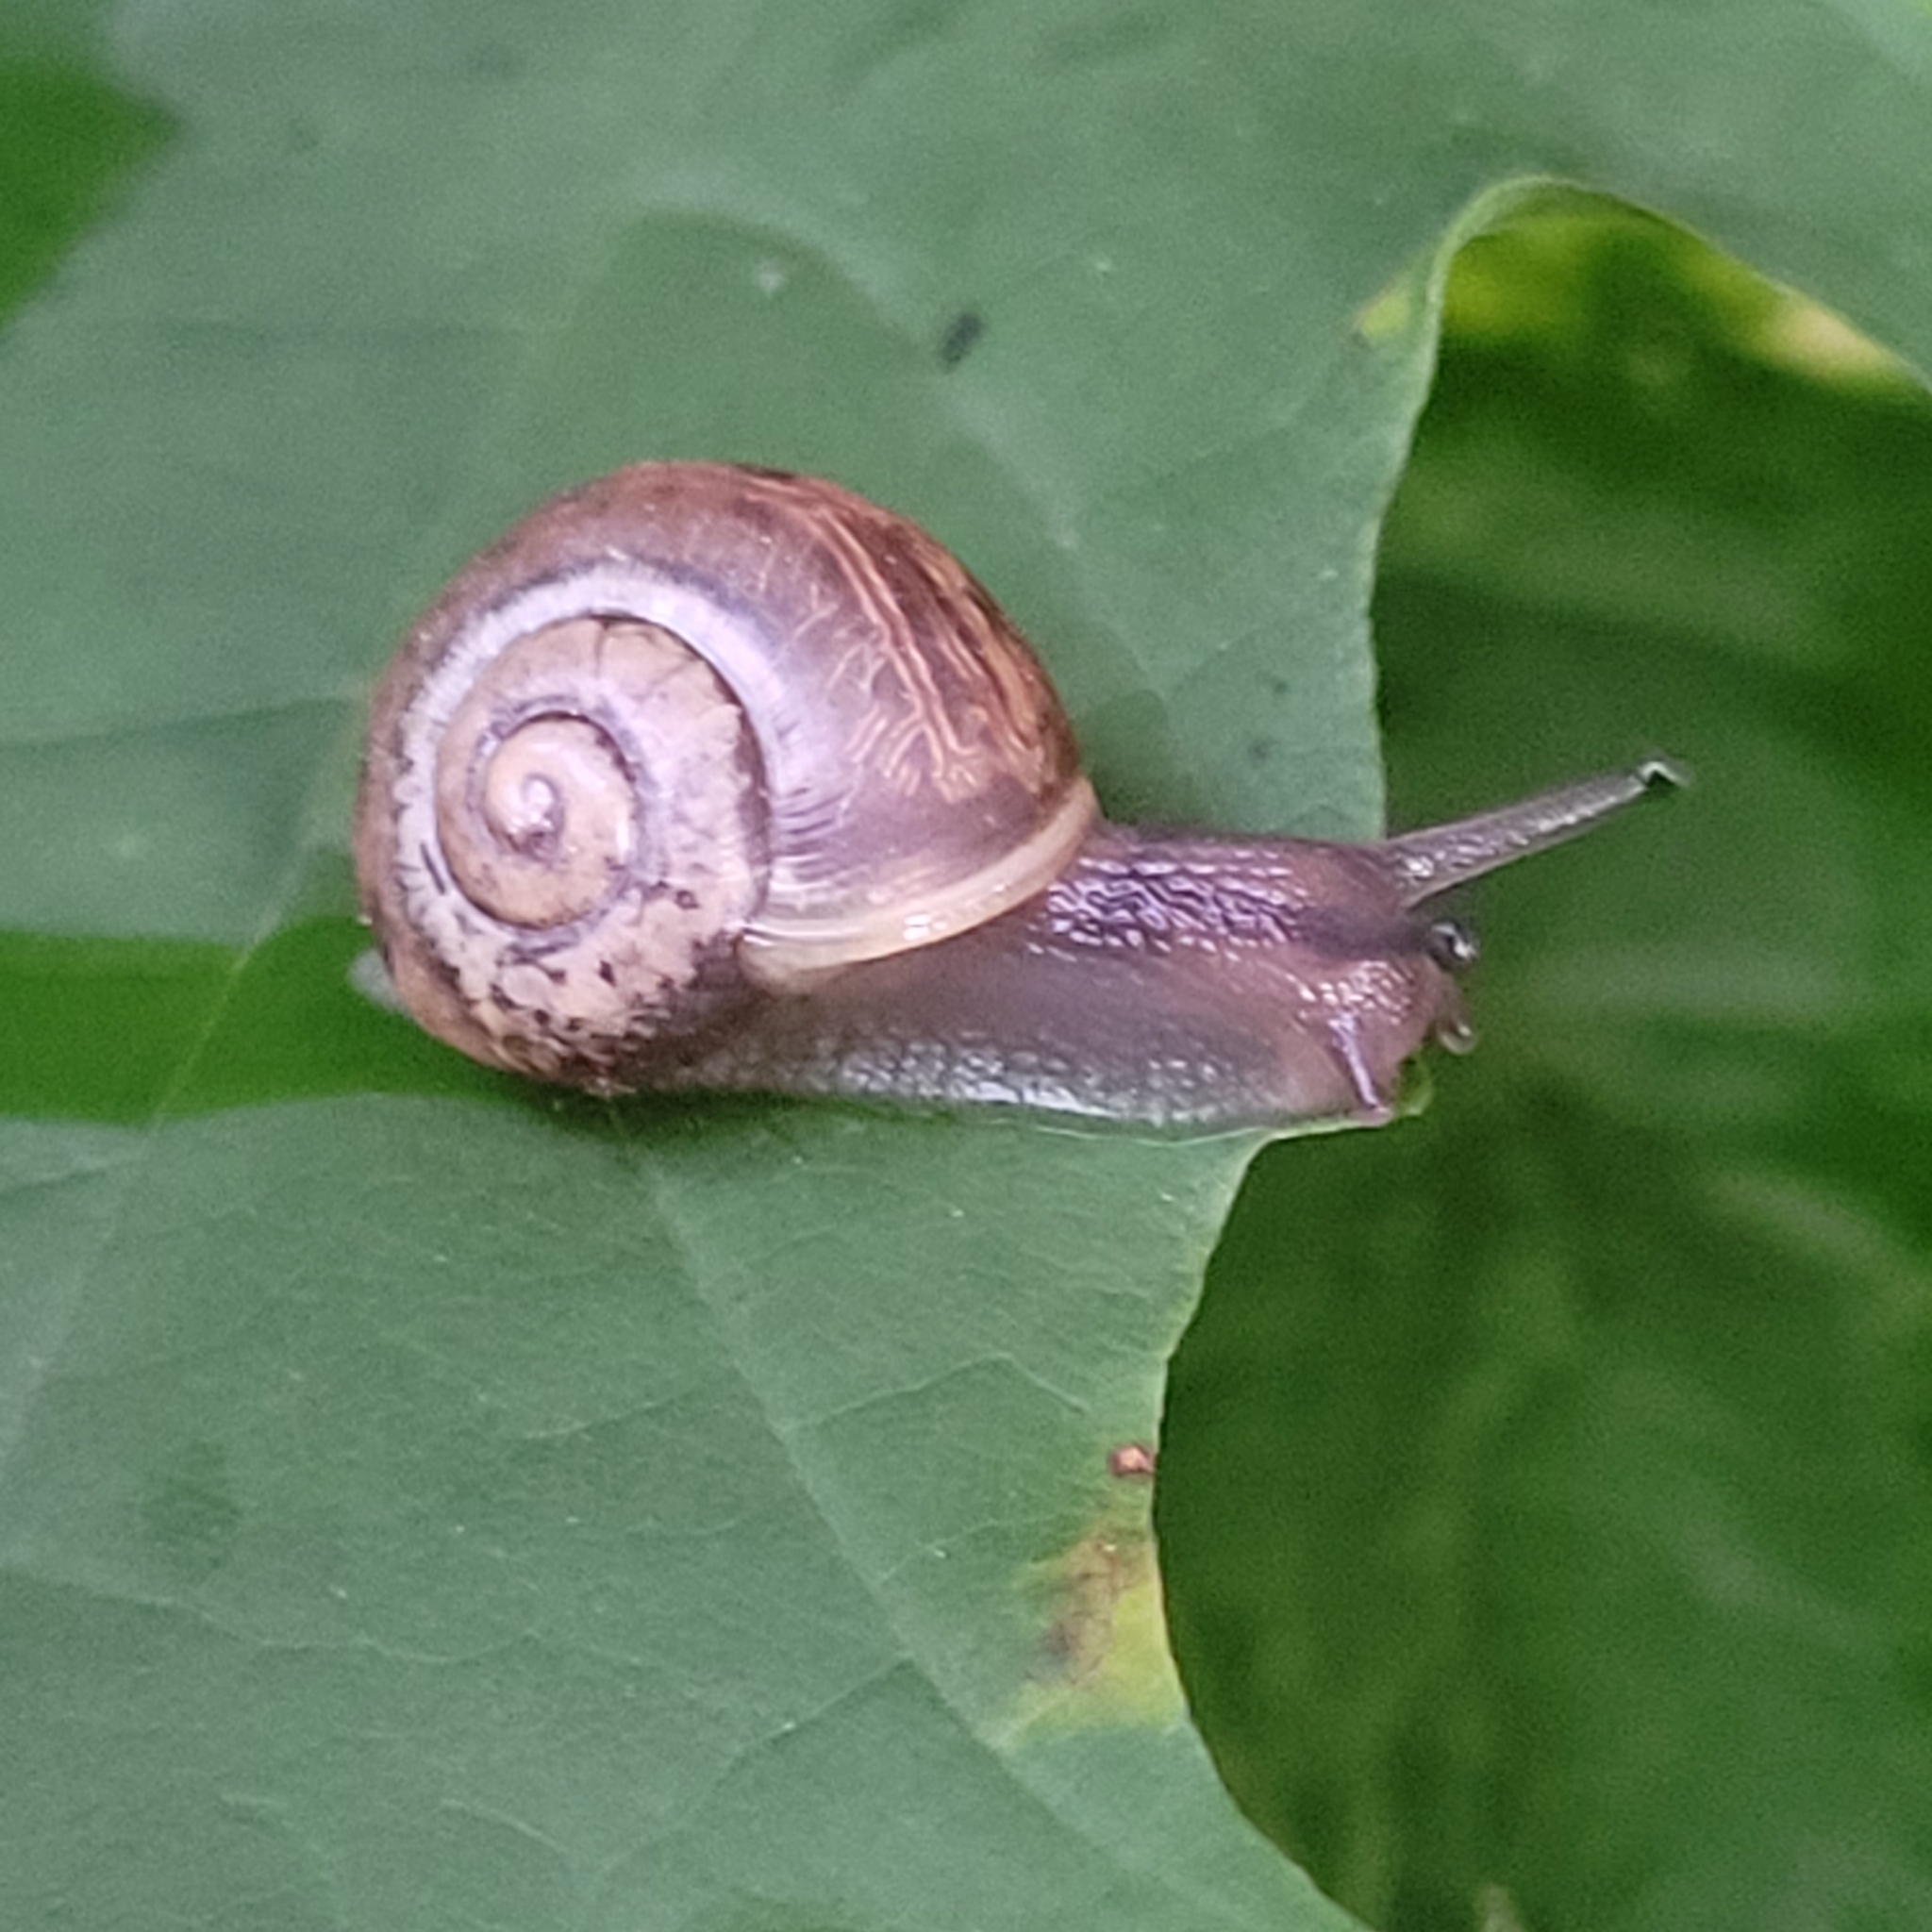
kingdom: Animalia
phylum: Mollusca
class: Gastropoda
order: Stylommatophora
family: Camaenidae
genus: Fruticicola
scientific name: Fruticicola fruticum
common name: Bush snail
